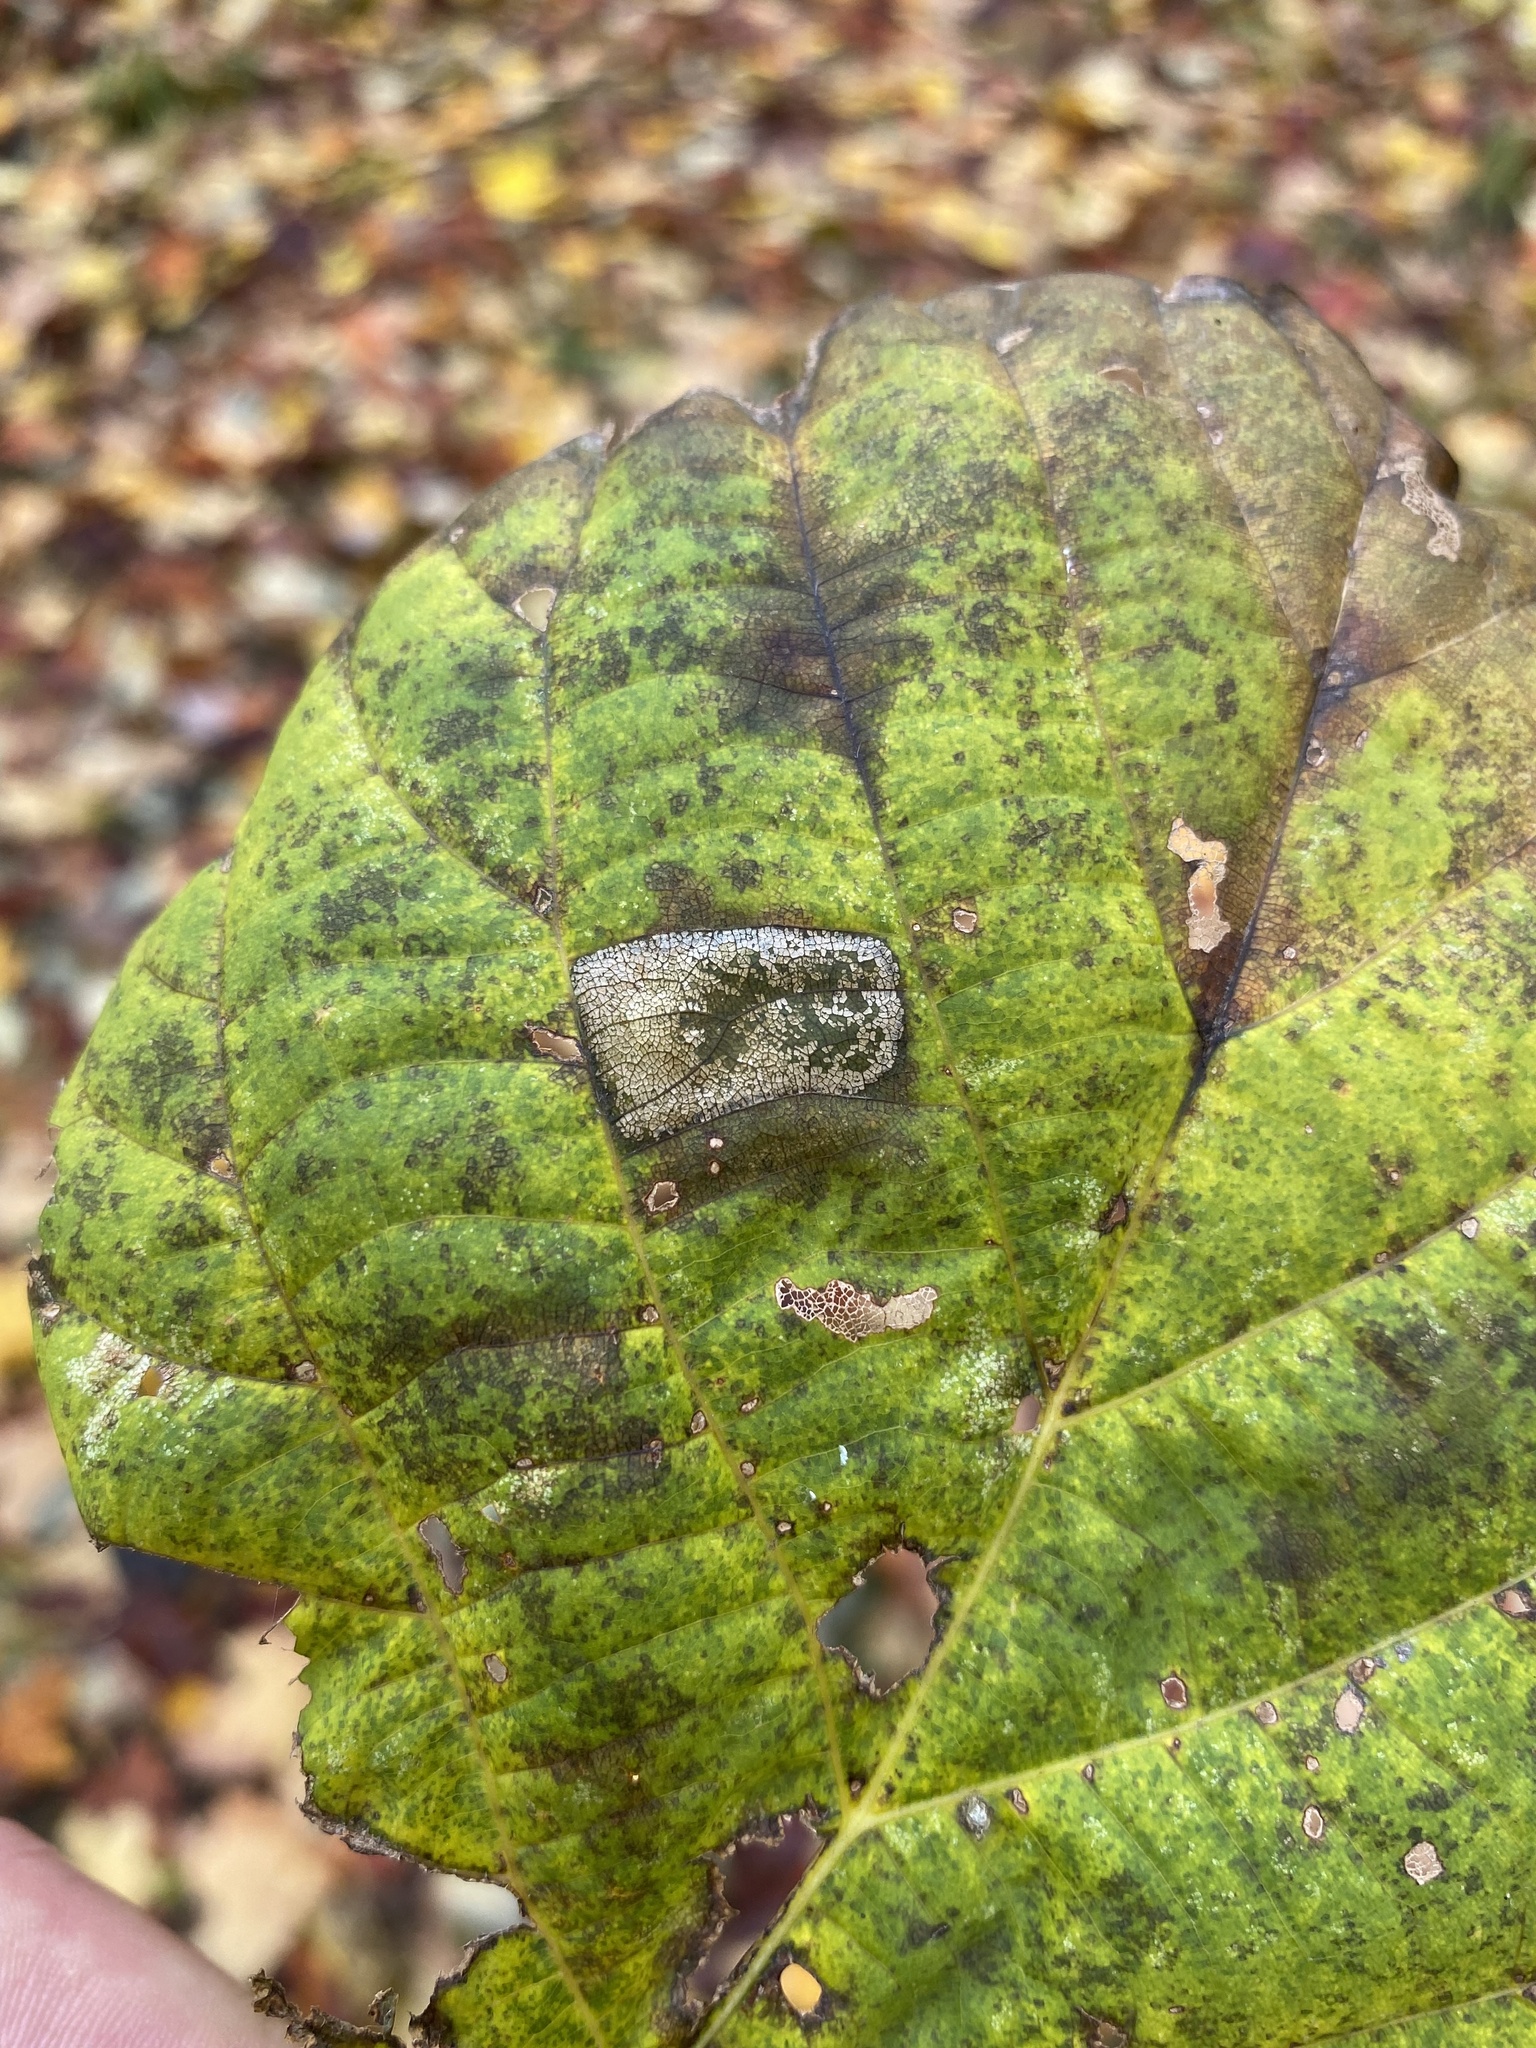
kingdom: Animalia
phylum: Arthropoda
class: Insecta
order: Lepidoptera
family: Gracillariidae
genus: Phyllonorycter
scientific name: Phyllonorycter lucetiella
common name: Basswood miner moth
